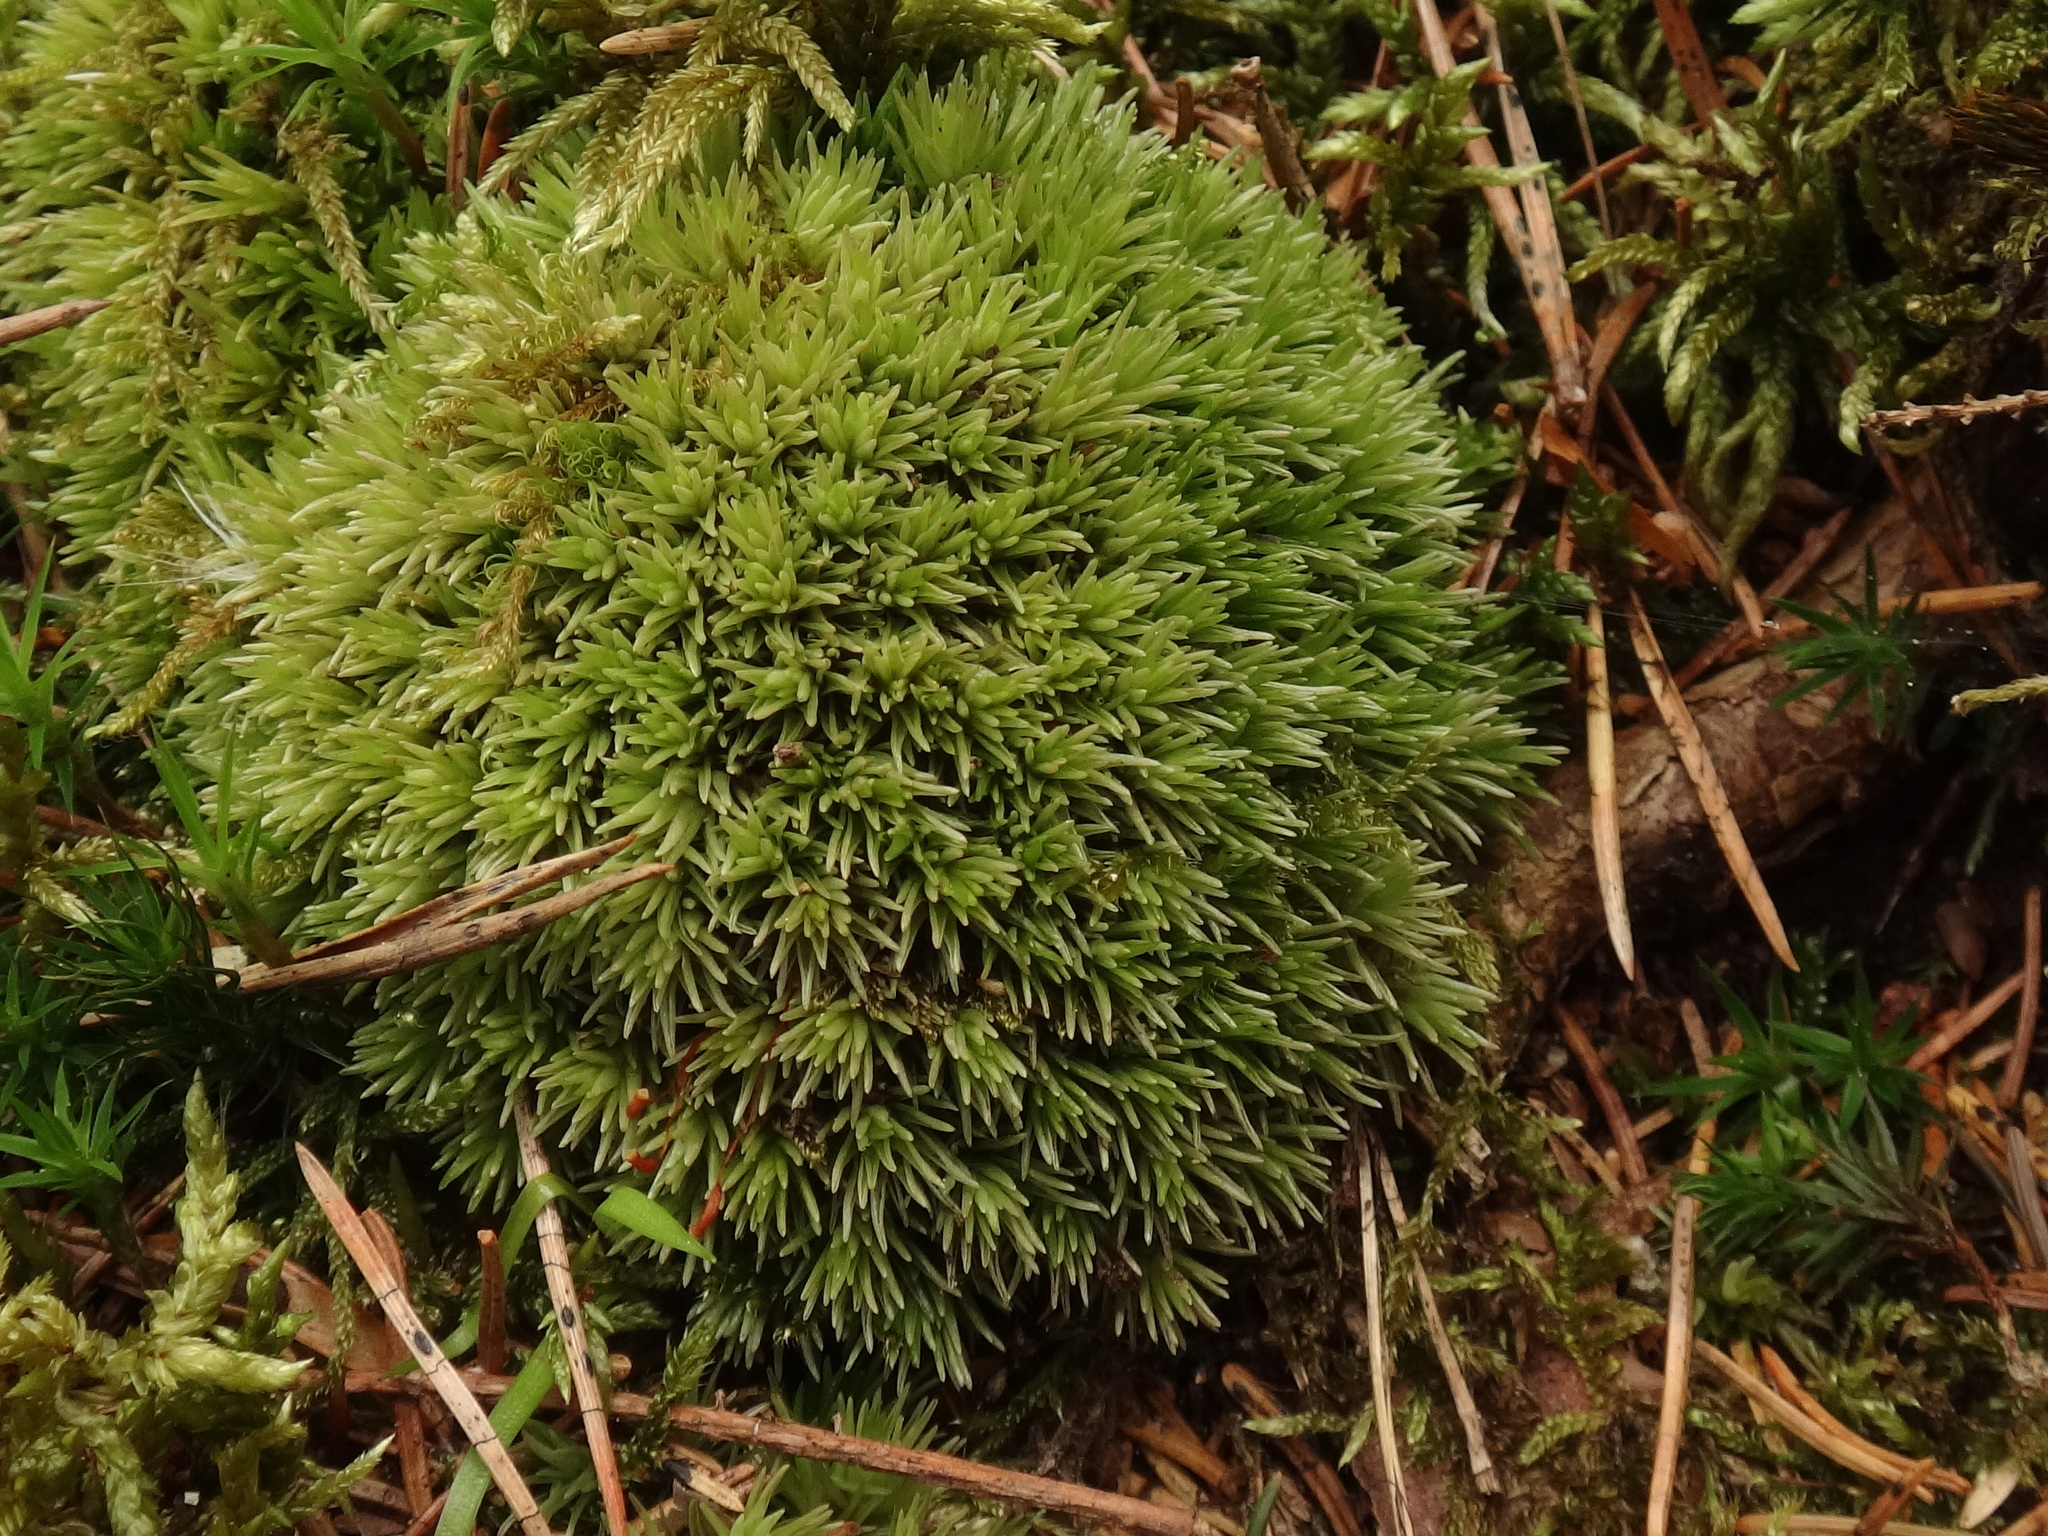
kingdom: Plantae
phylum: Bryophyta
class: Bryopsida
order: Dicranales
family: Leucobryaceae
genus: Leucobryum
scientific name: Leucobryum glaucum
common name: Large white-moss
